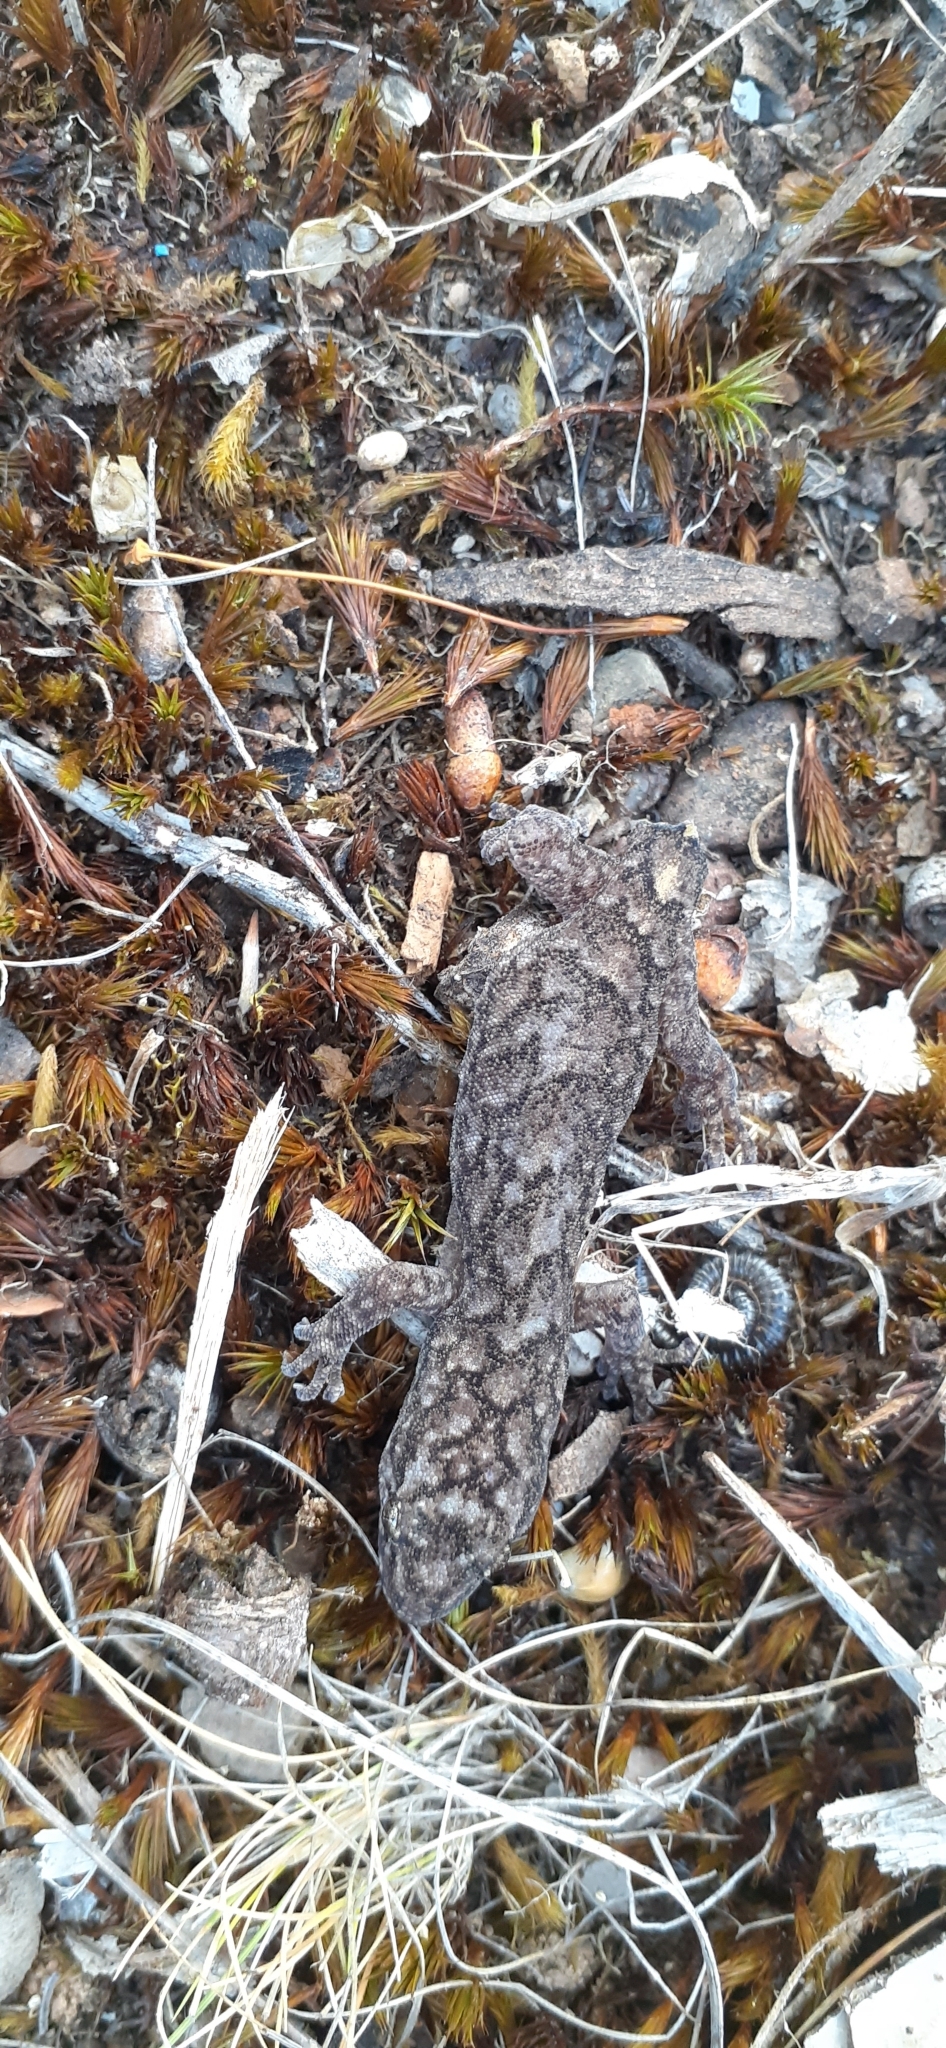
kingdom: Animalia
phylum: Chordata
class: Squamata
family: Gekkonidae
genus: Christinus
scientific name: Christinus marmoratus
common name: Marbled gecko
